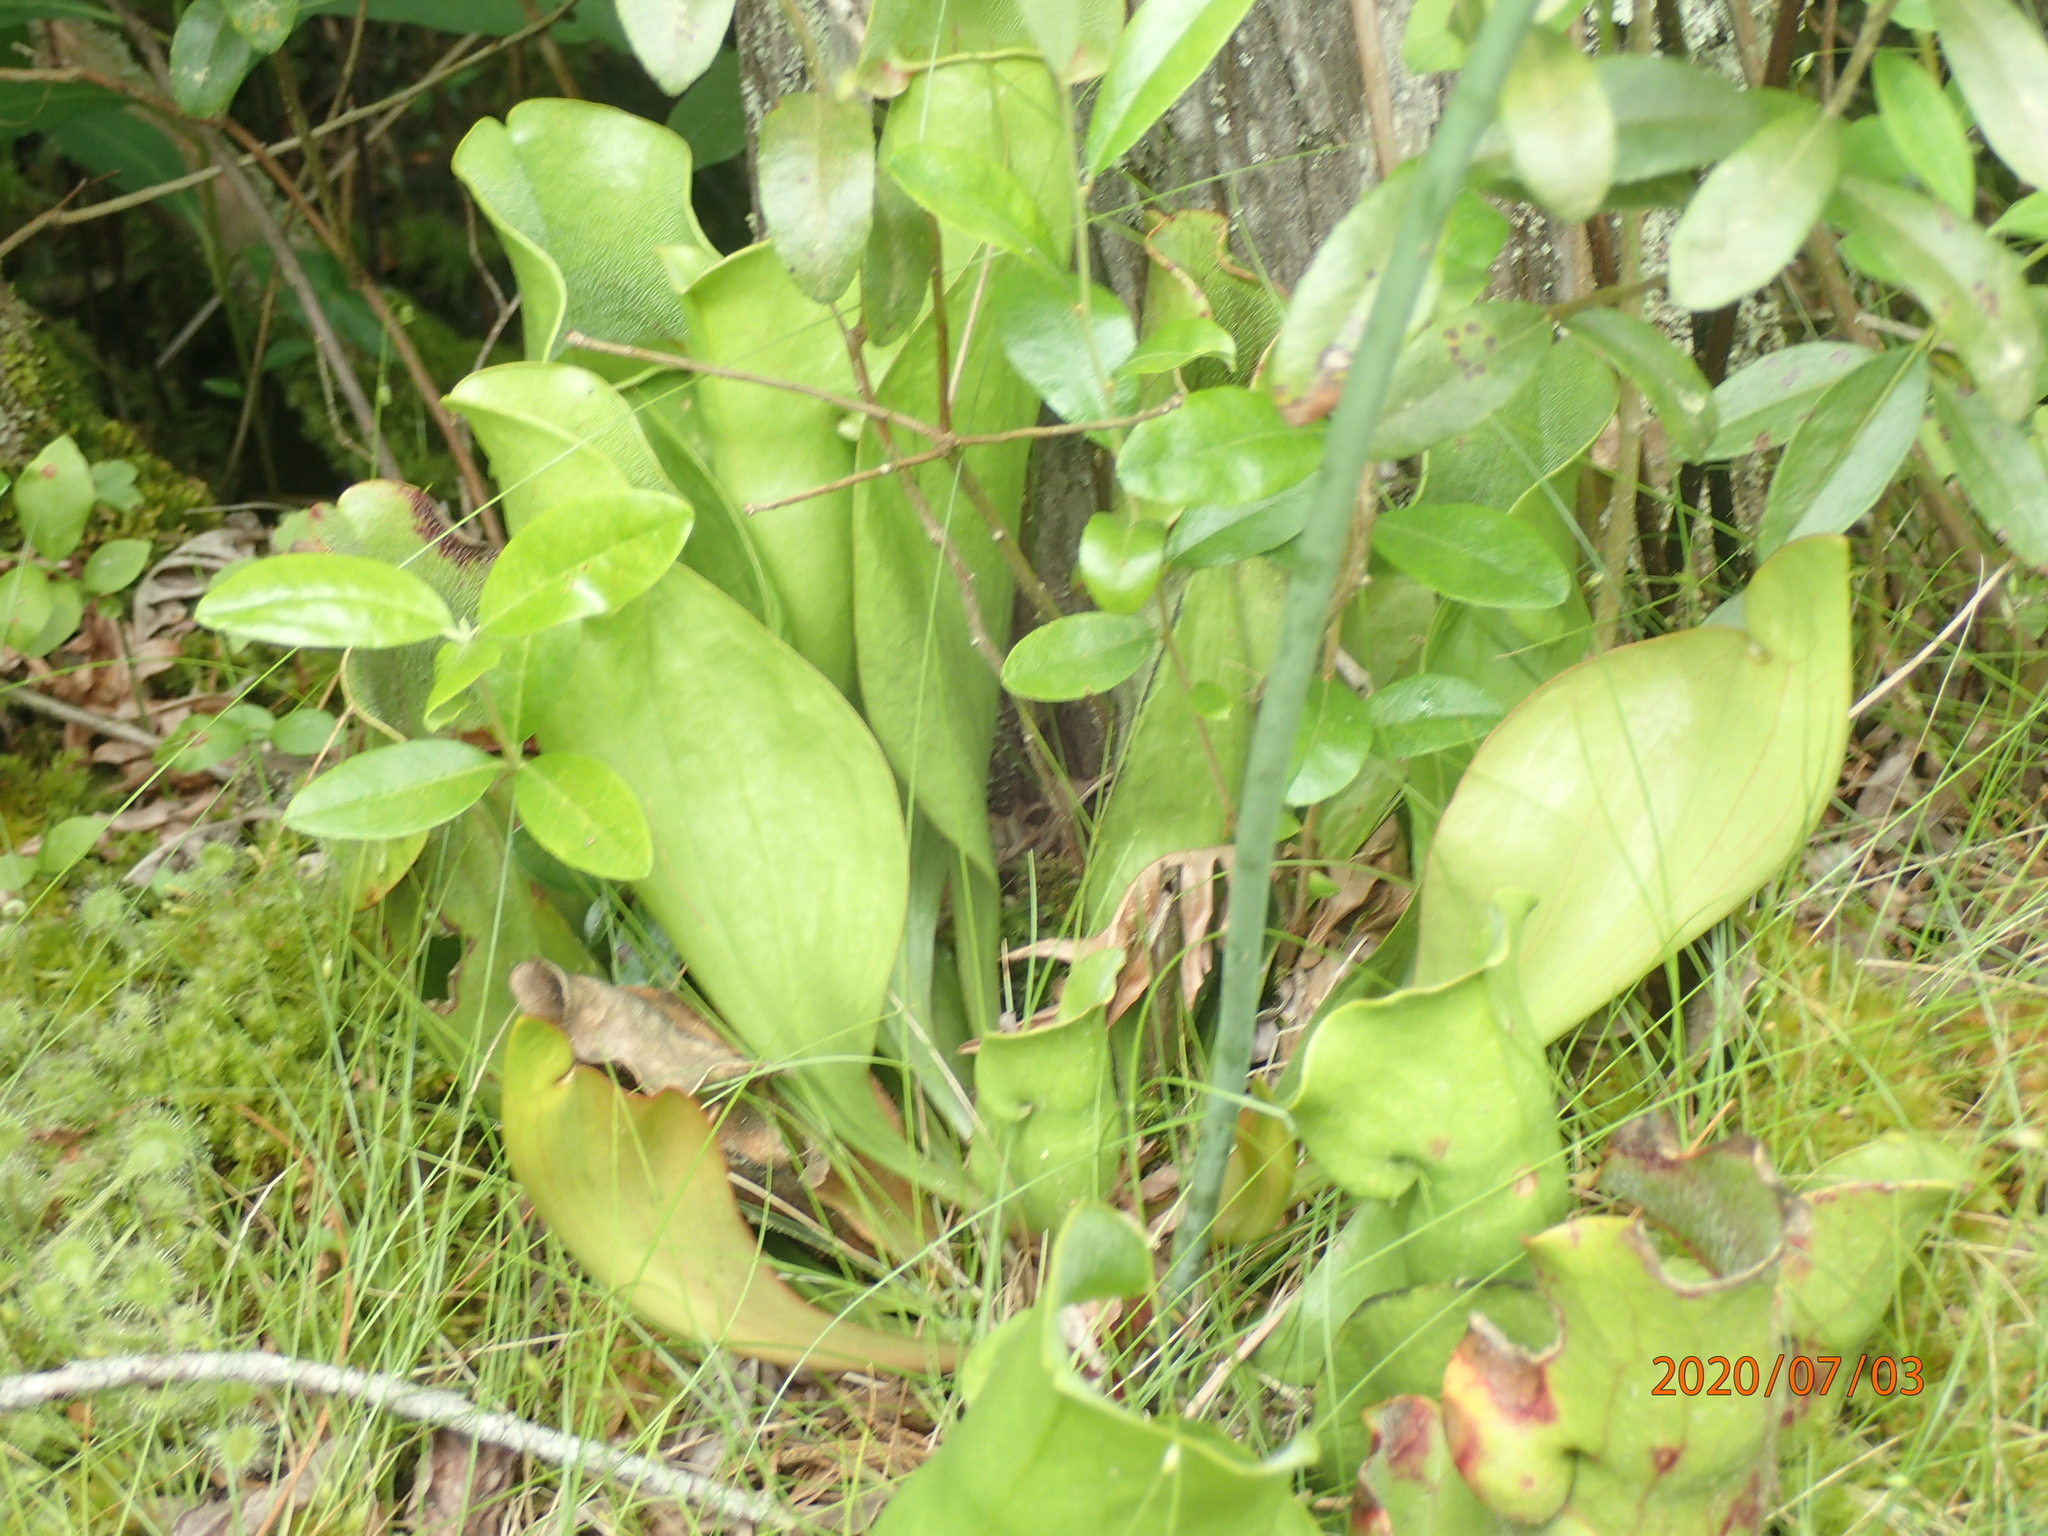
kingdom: Plantae
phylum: Tracheophyta
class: Magnoliopsida
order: Ericales
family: Sarraceniaceae
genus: Sarracenia
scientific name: Sarracenia purpurea
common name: Pitcherplant
